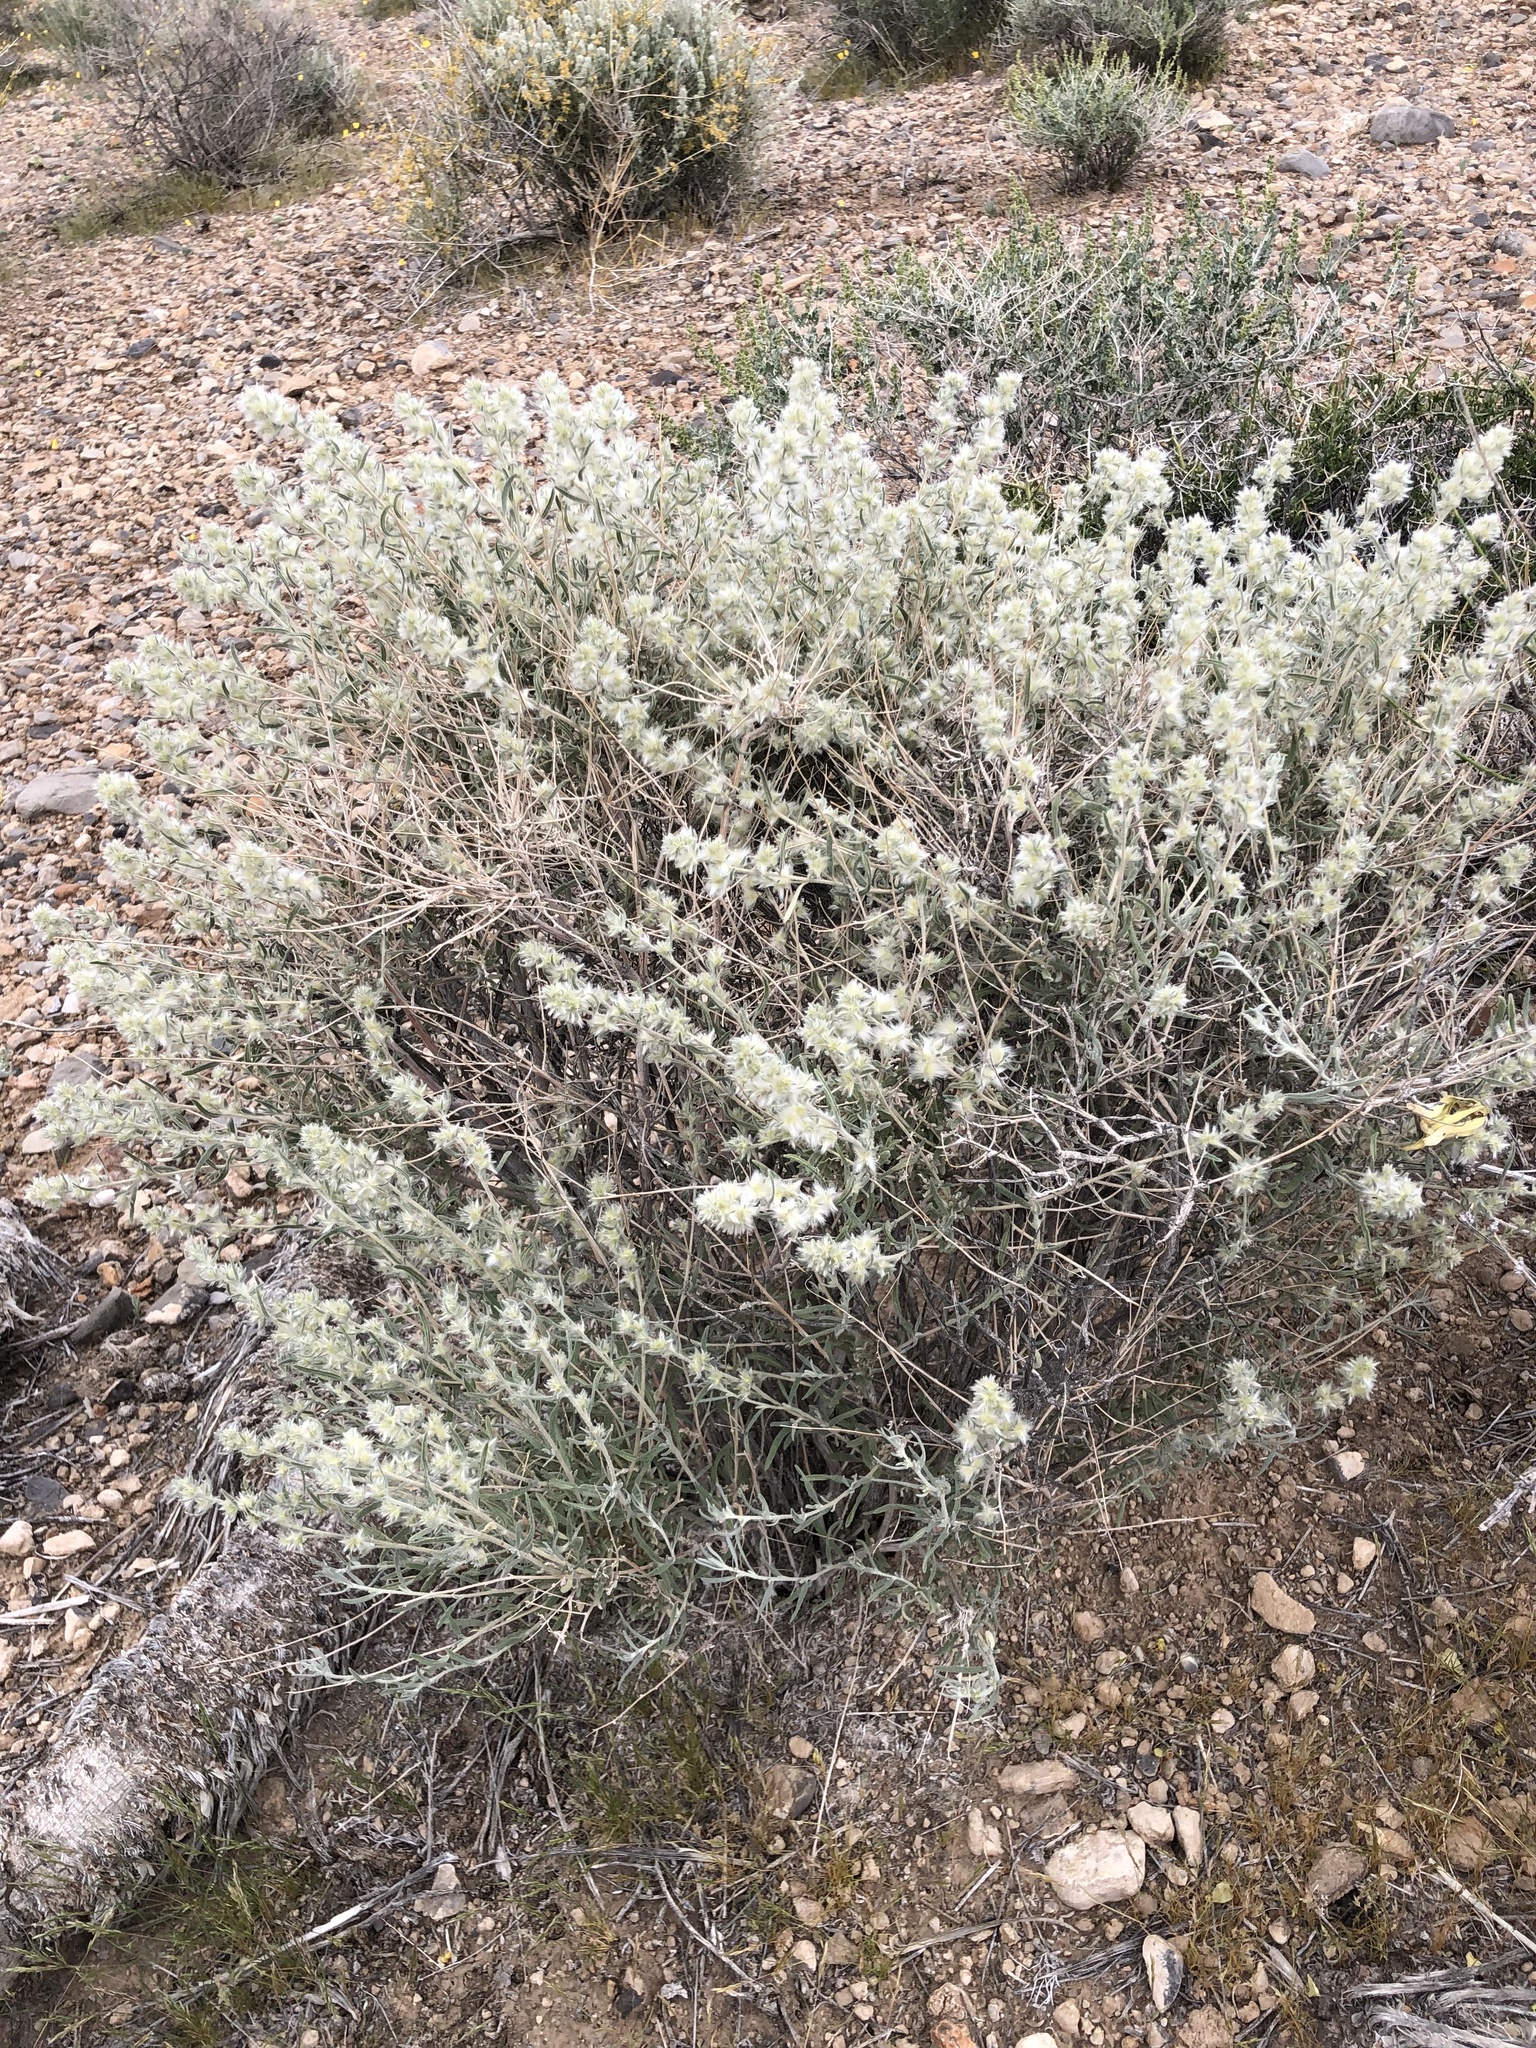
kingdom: Plantae
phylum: Tracheophyta
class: Magnoliopsida
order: Caryophyllales
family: Amaranthaceae
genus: Krascheninnikovia
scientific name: Krascheninnikovia lanata
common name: Winterfat
